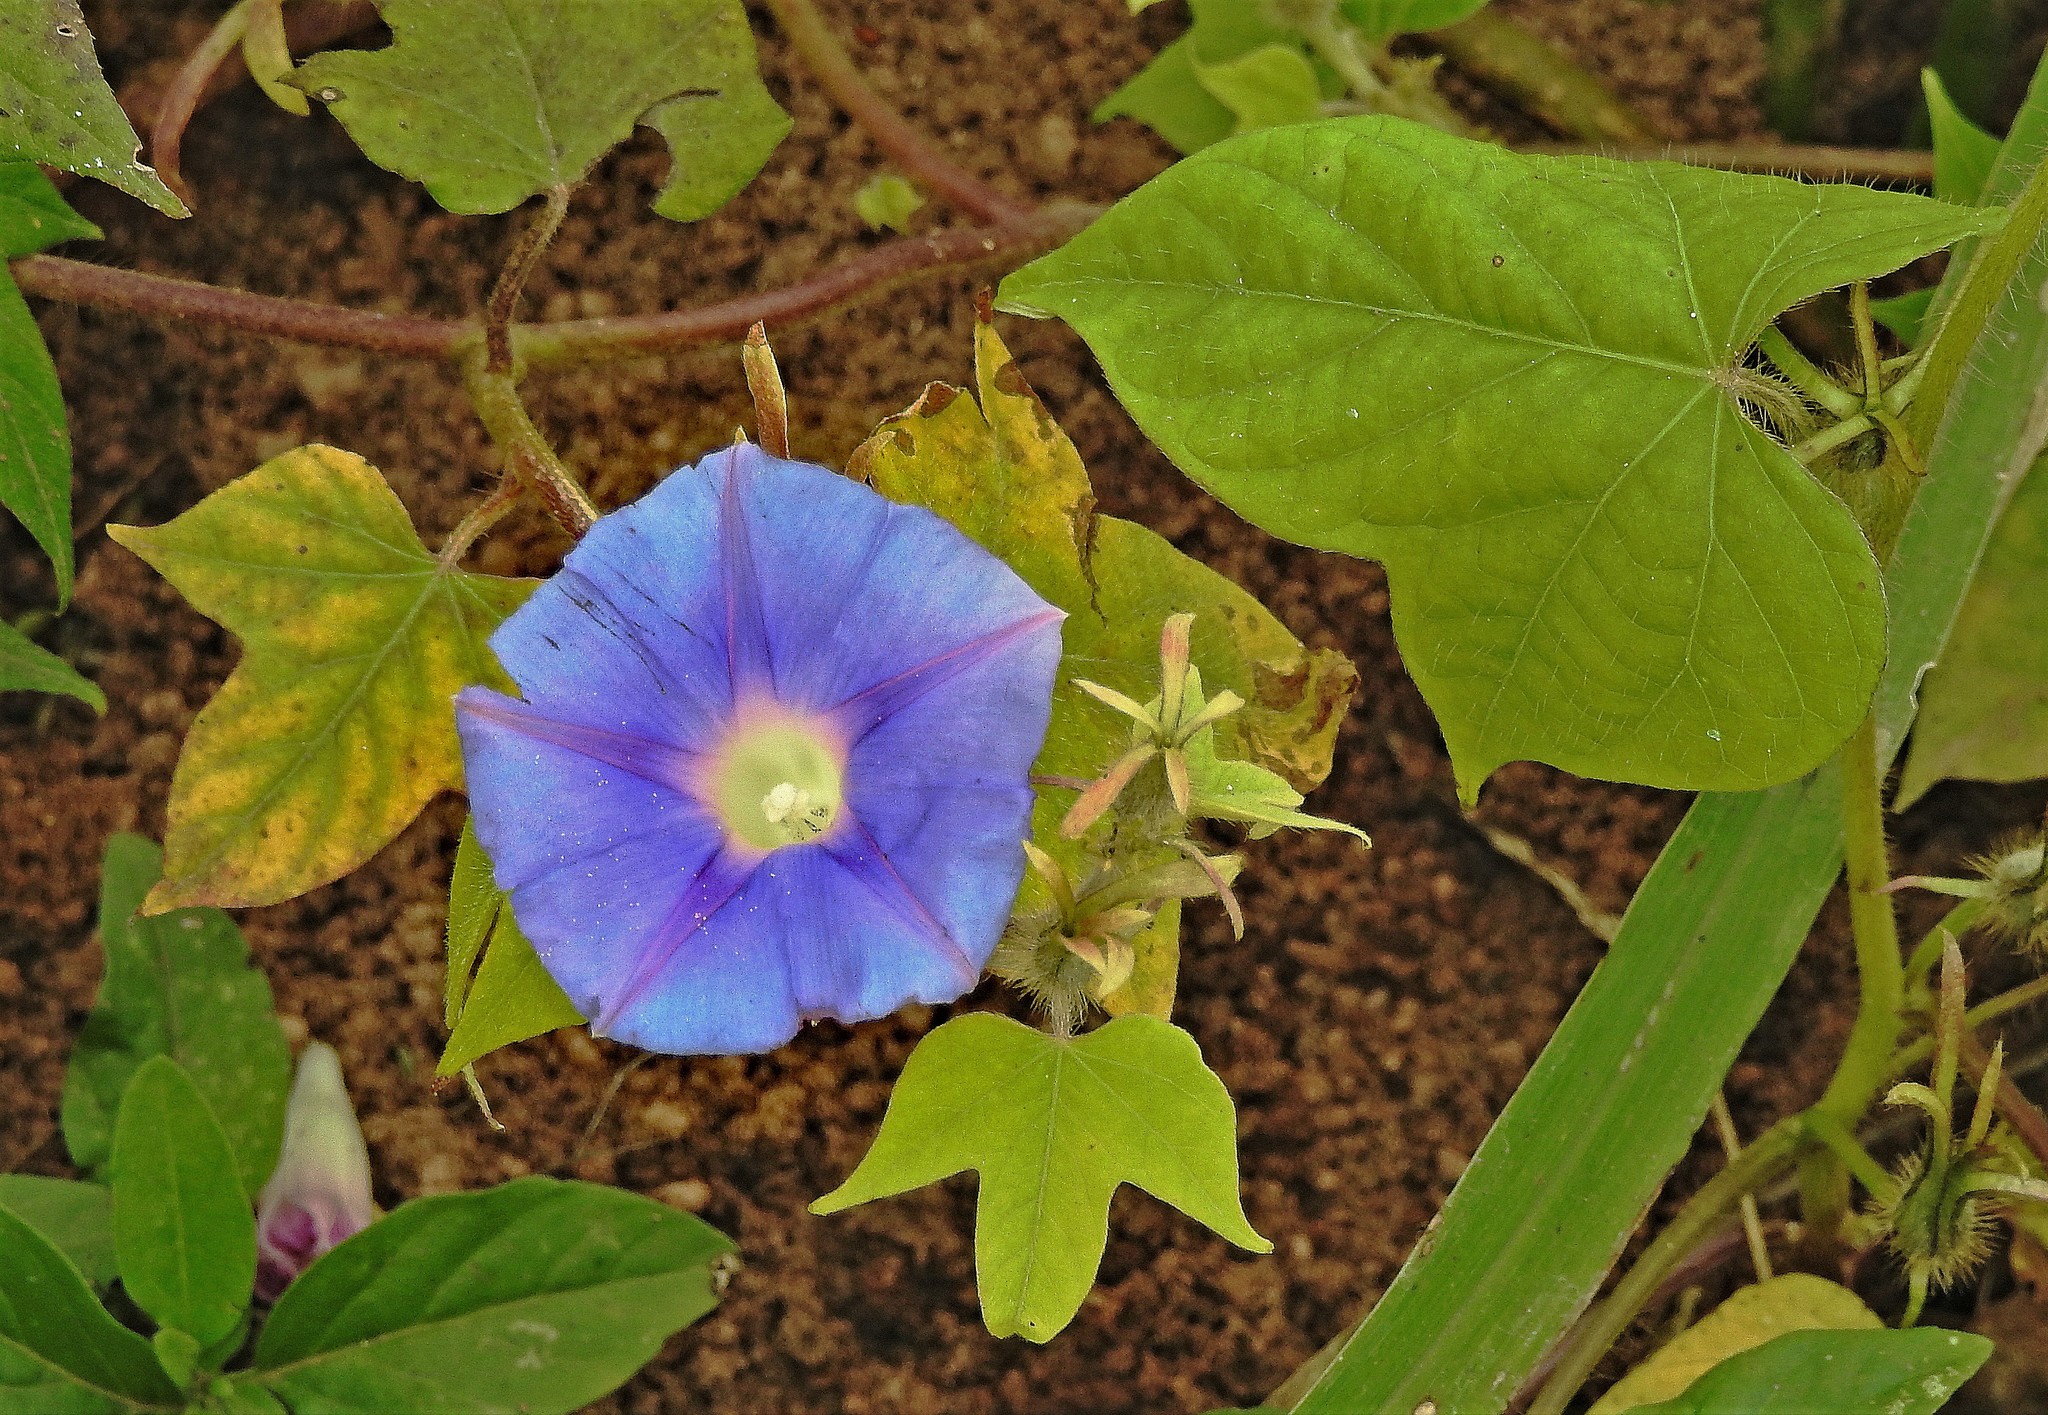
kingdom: Plantae
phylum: Tracheophyta
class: Magnoliopsida
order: Solanales
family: Convolvulaceae
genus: Ipomoea
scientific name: Ipomoea nil
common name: Japanese morning-glory
